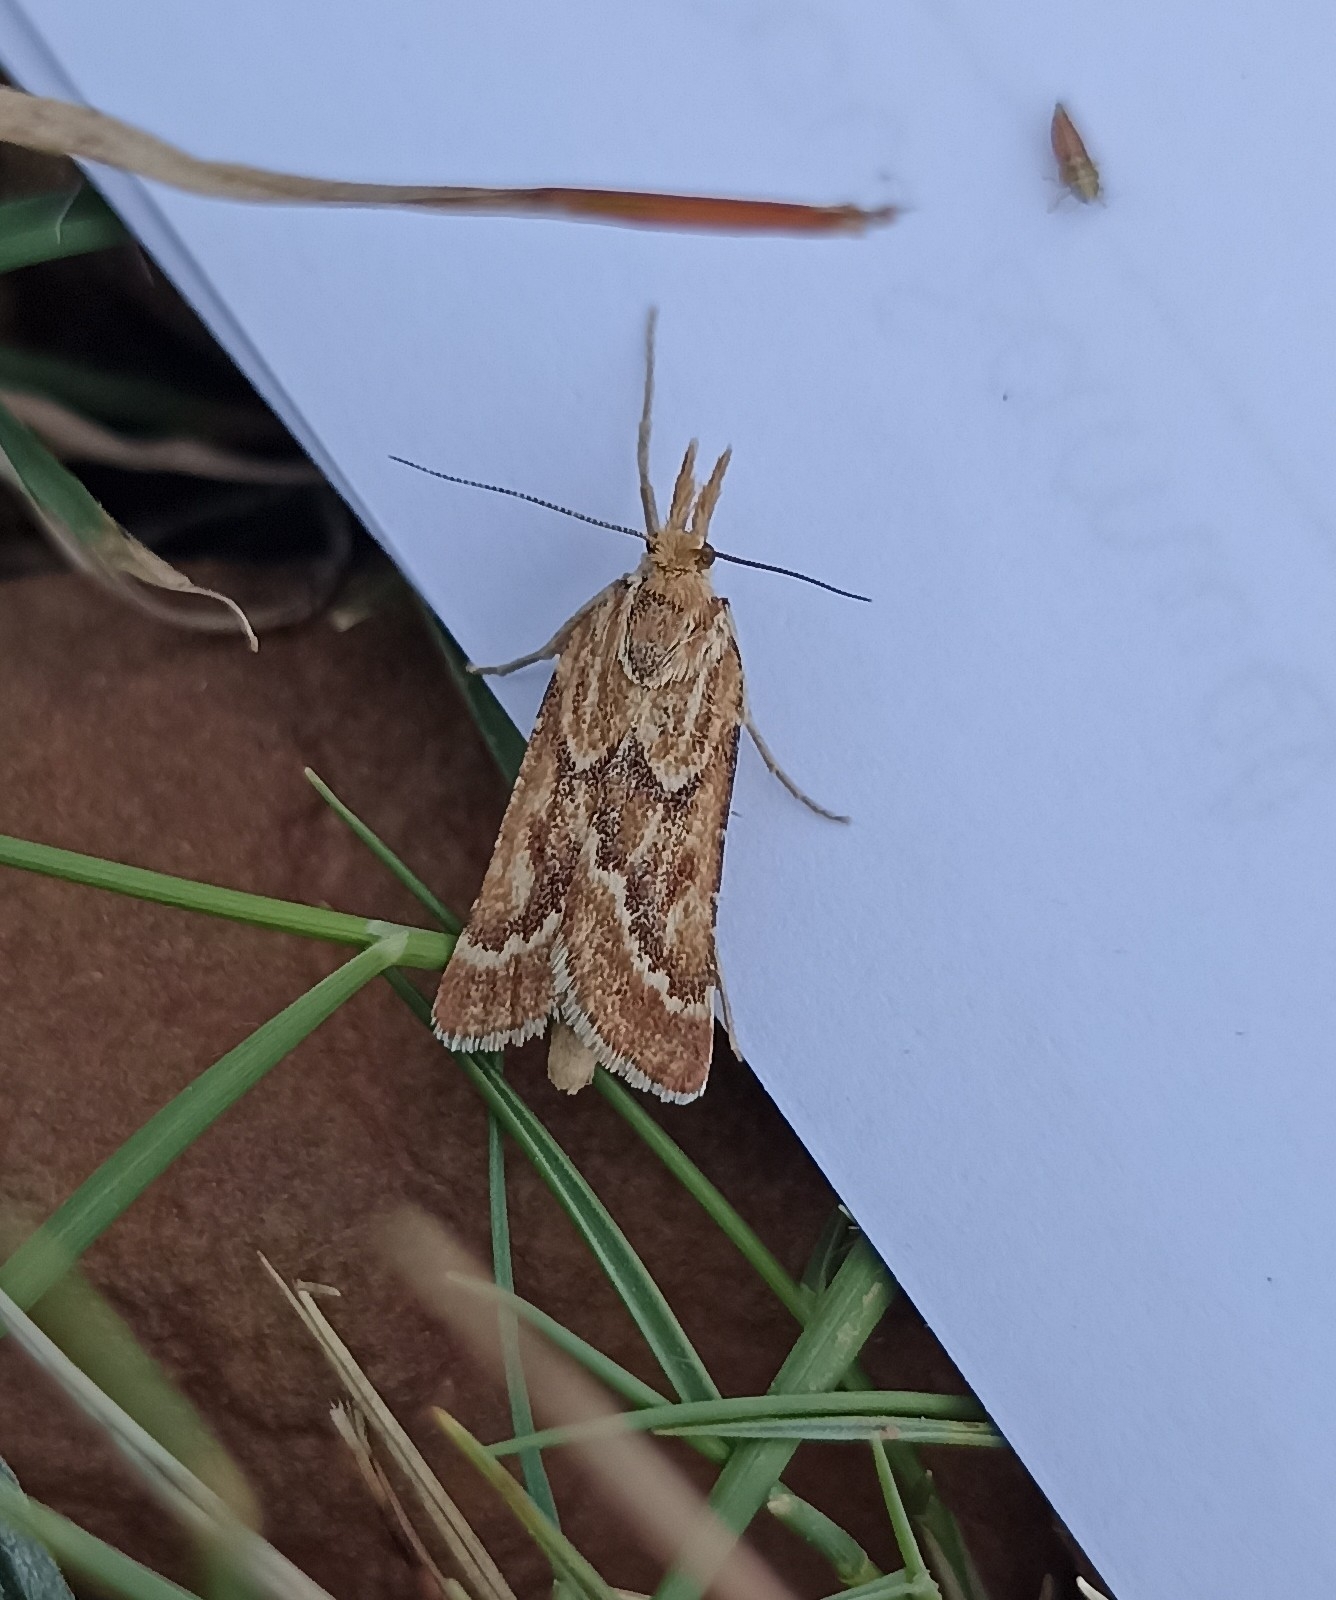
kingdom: Animalia
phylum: Arthropoda
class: Insecta
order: Lepidoptera
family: Pyralidae
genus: Synaphe
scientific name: Synaphe bombycalis
